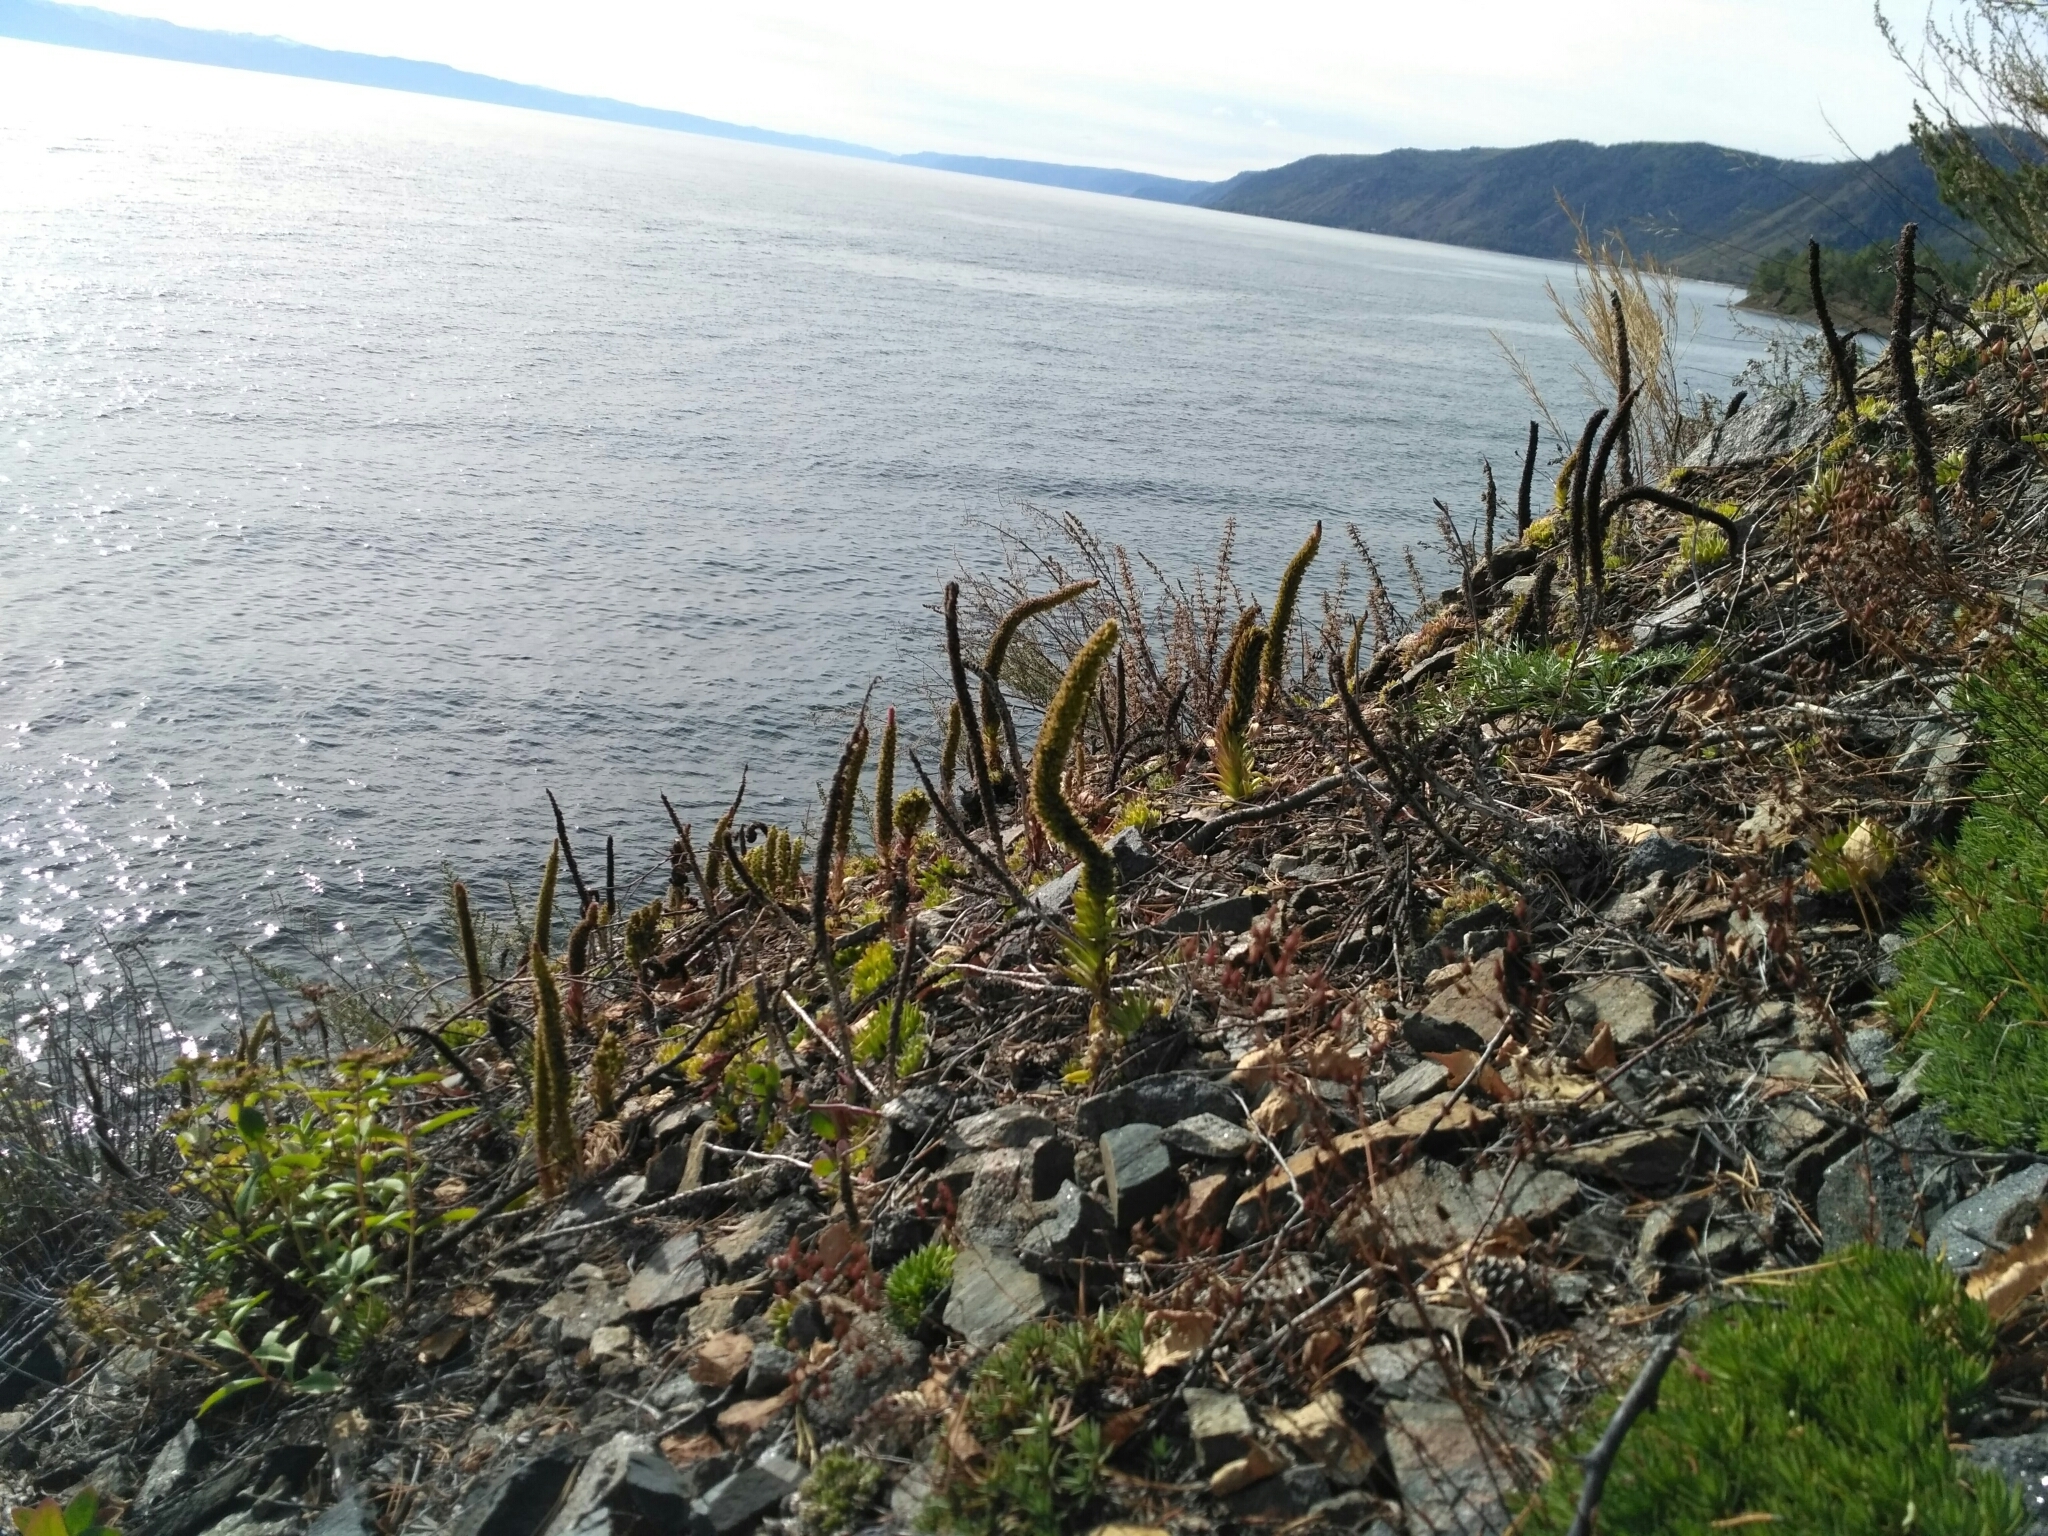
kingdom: Plantae
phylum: Tracheophyta
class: Magnoliopsida
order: Saxifragales
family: Crassulaceae
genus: Orostachys
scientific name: Orostachys spinosa
